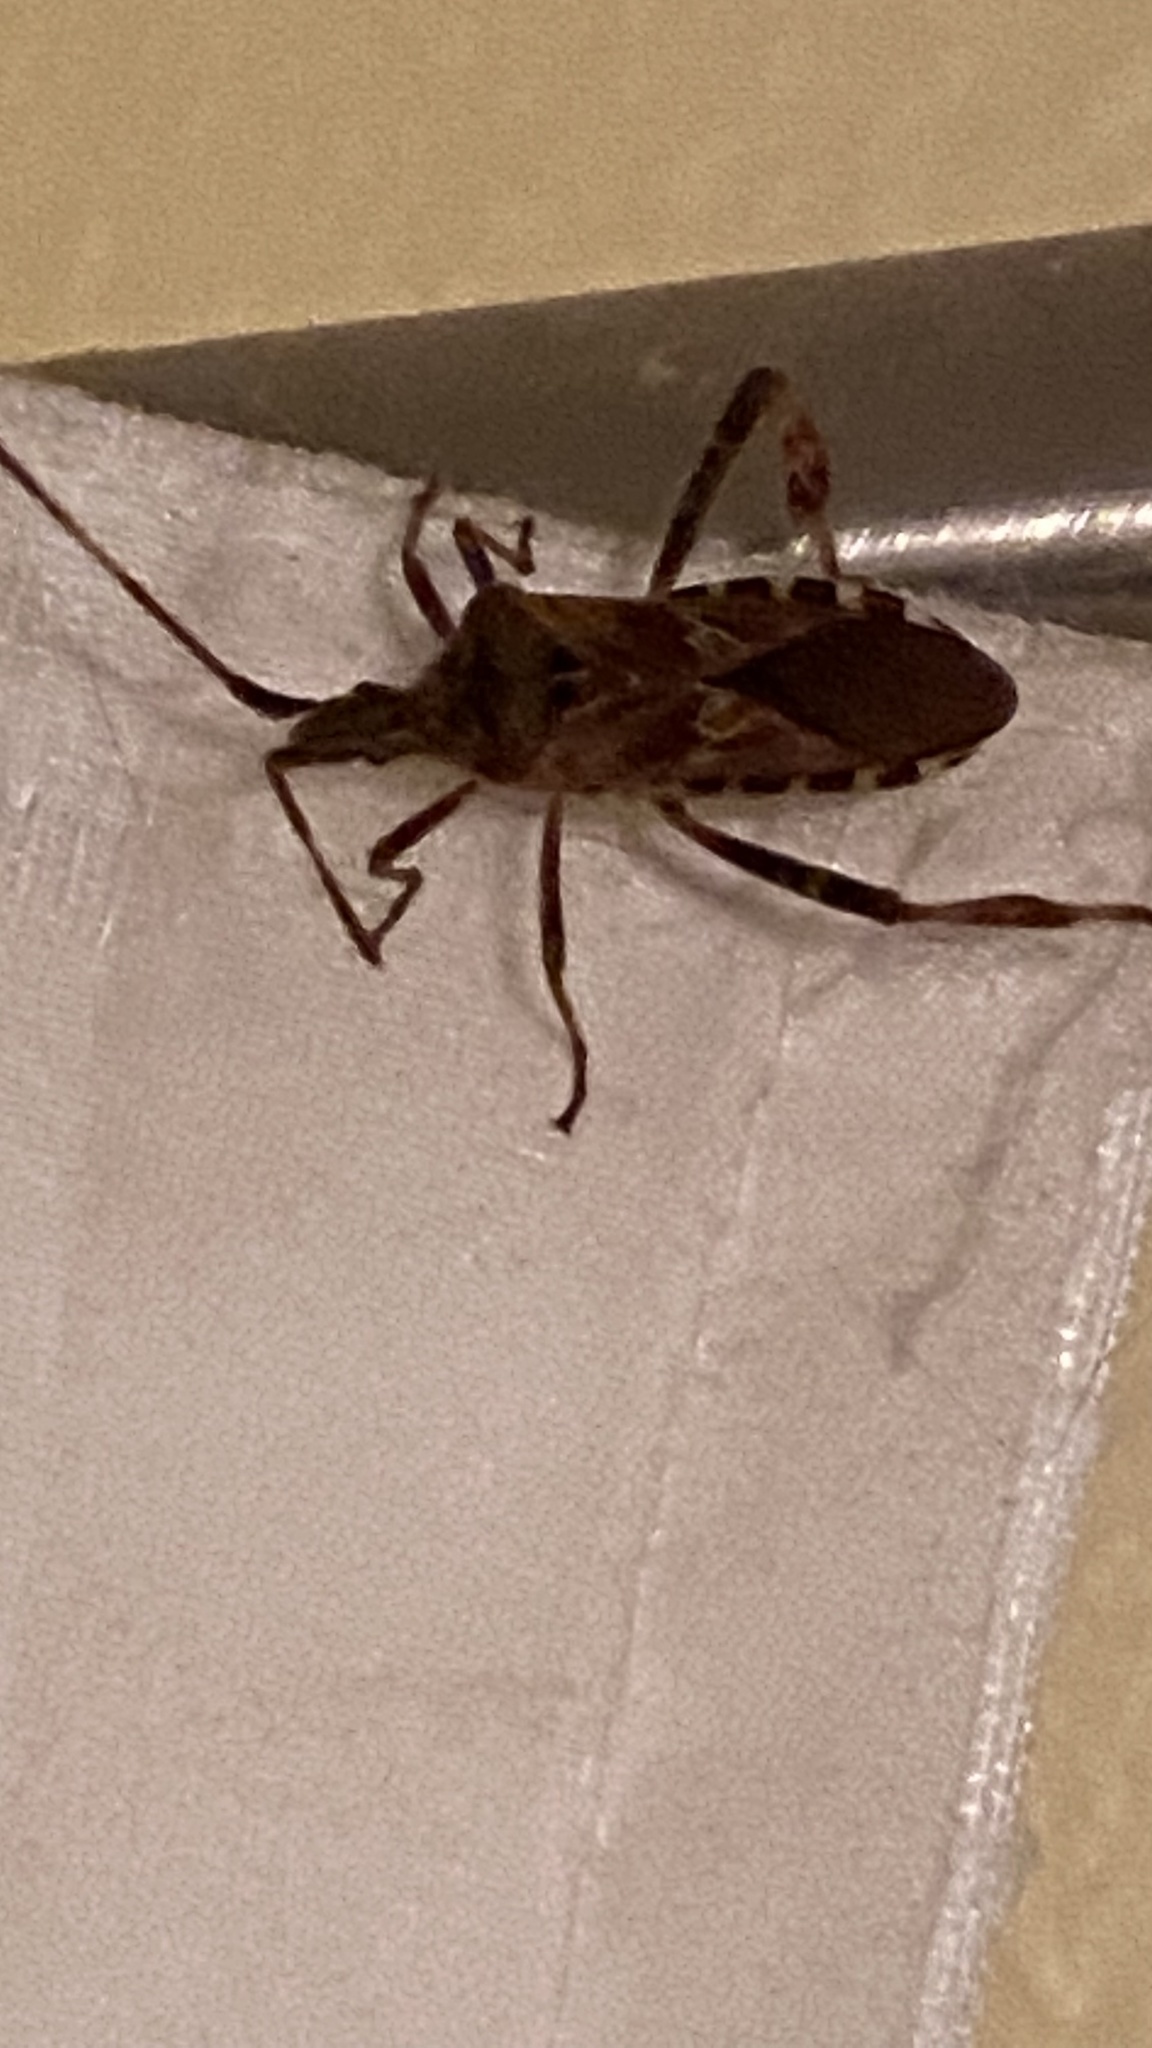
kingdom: Animalia
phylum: Arthropoda
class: Insecta
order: Hemiptera
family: Coreidae
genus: Leptoglossus
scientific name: Leptoglossus occidentalis
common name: Western conifer-seed bug
